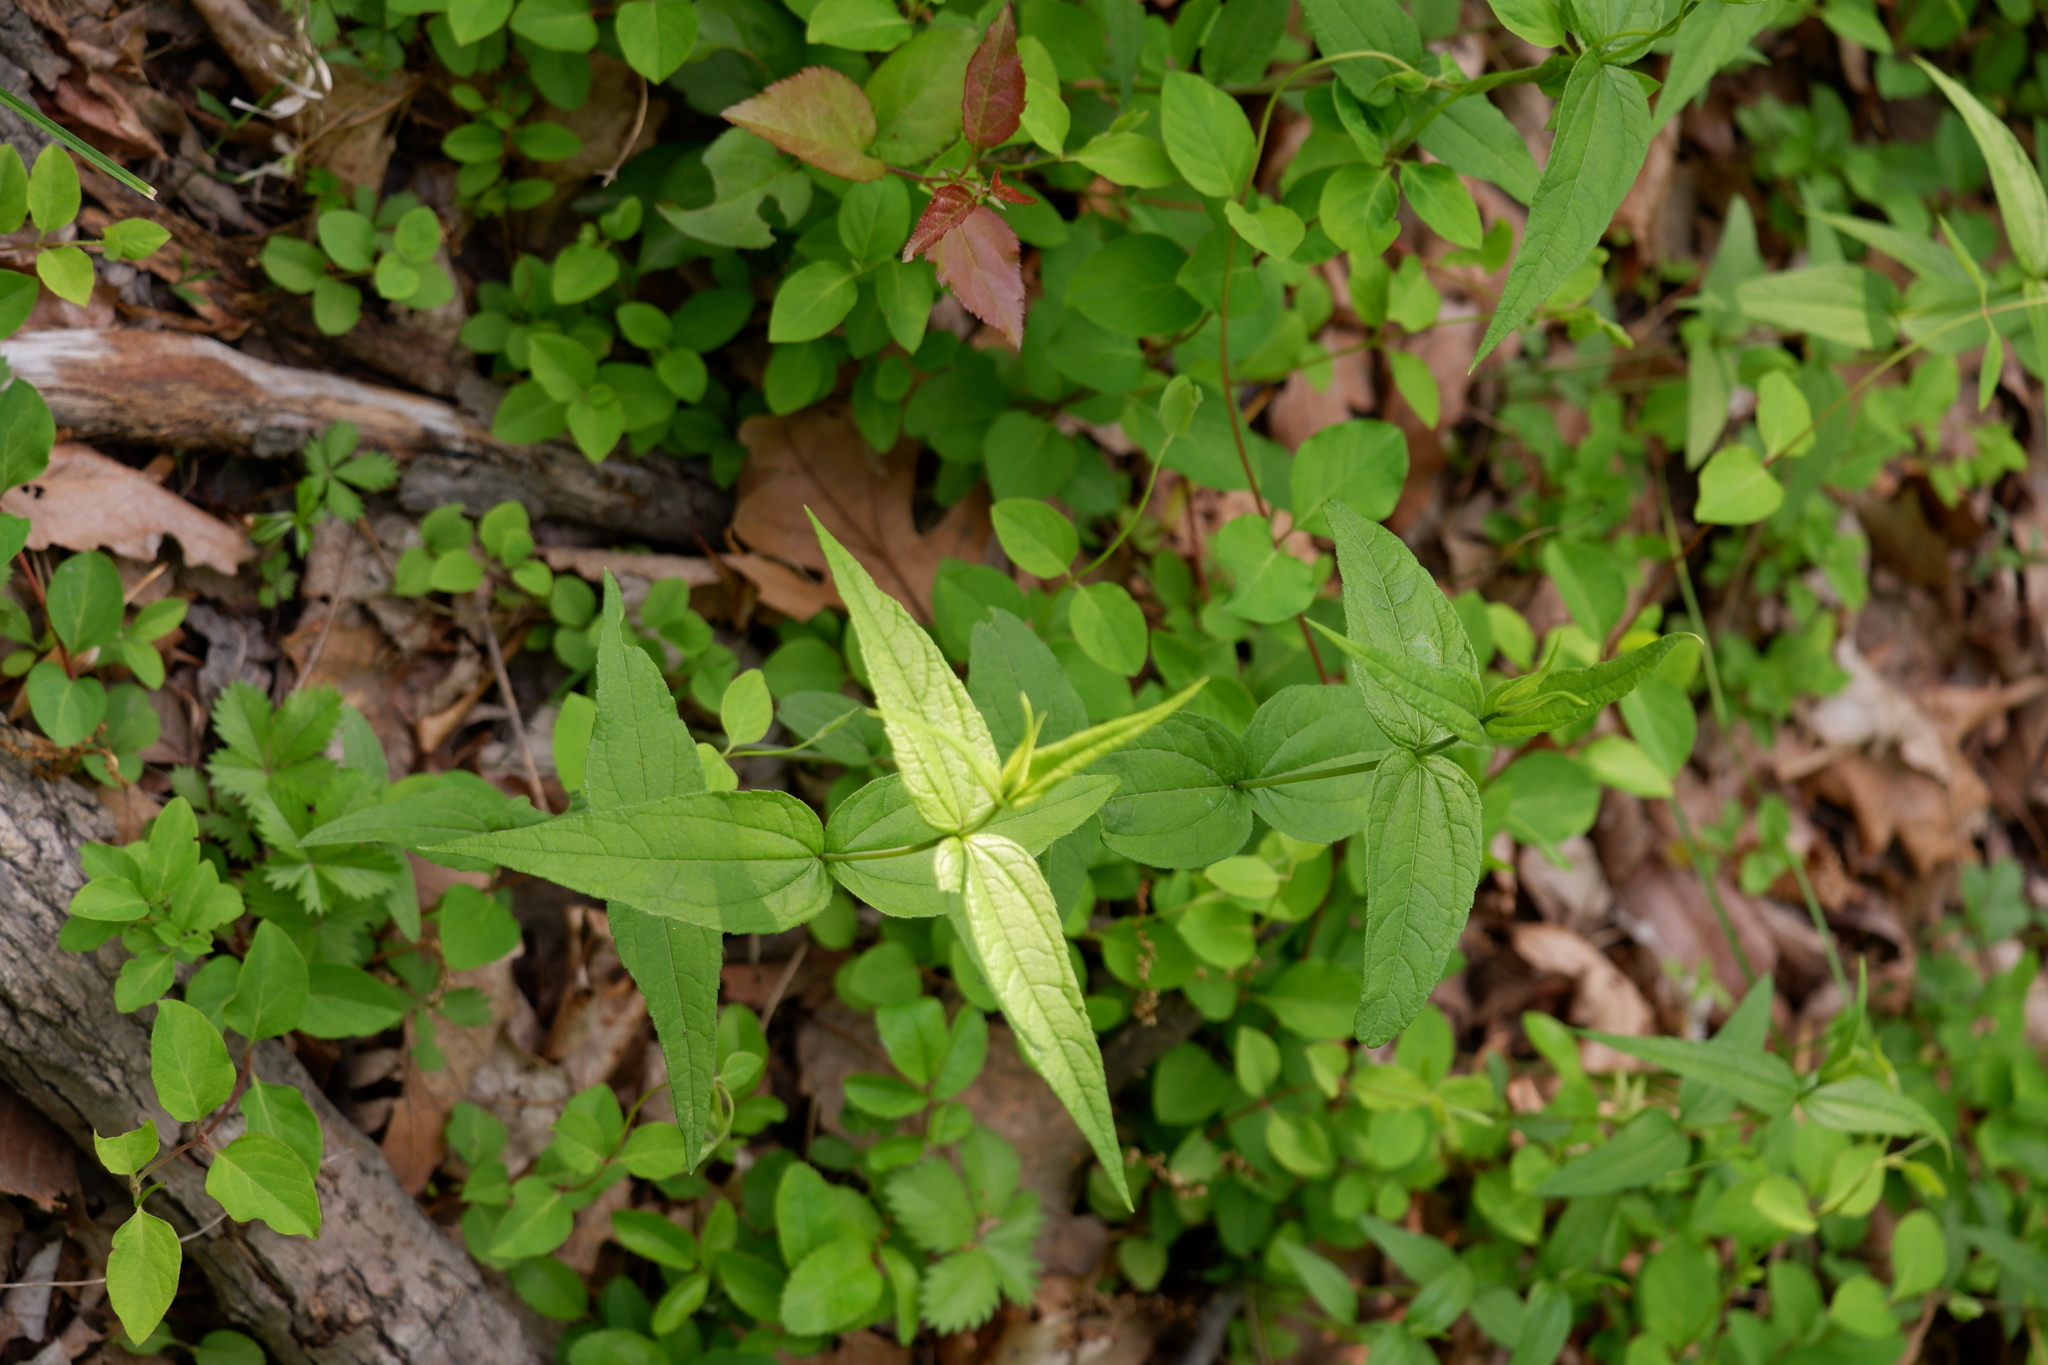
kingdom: Plantae
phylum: Tracheophyta
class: Magnoliopsida
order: Asterales
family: Asteraceae
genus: Helianthus
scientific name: Helianthus divaricatus
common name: Divergent sunflower
